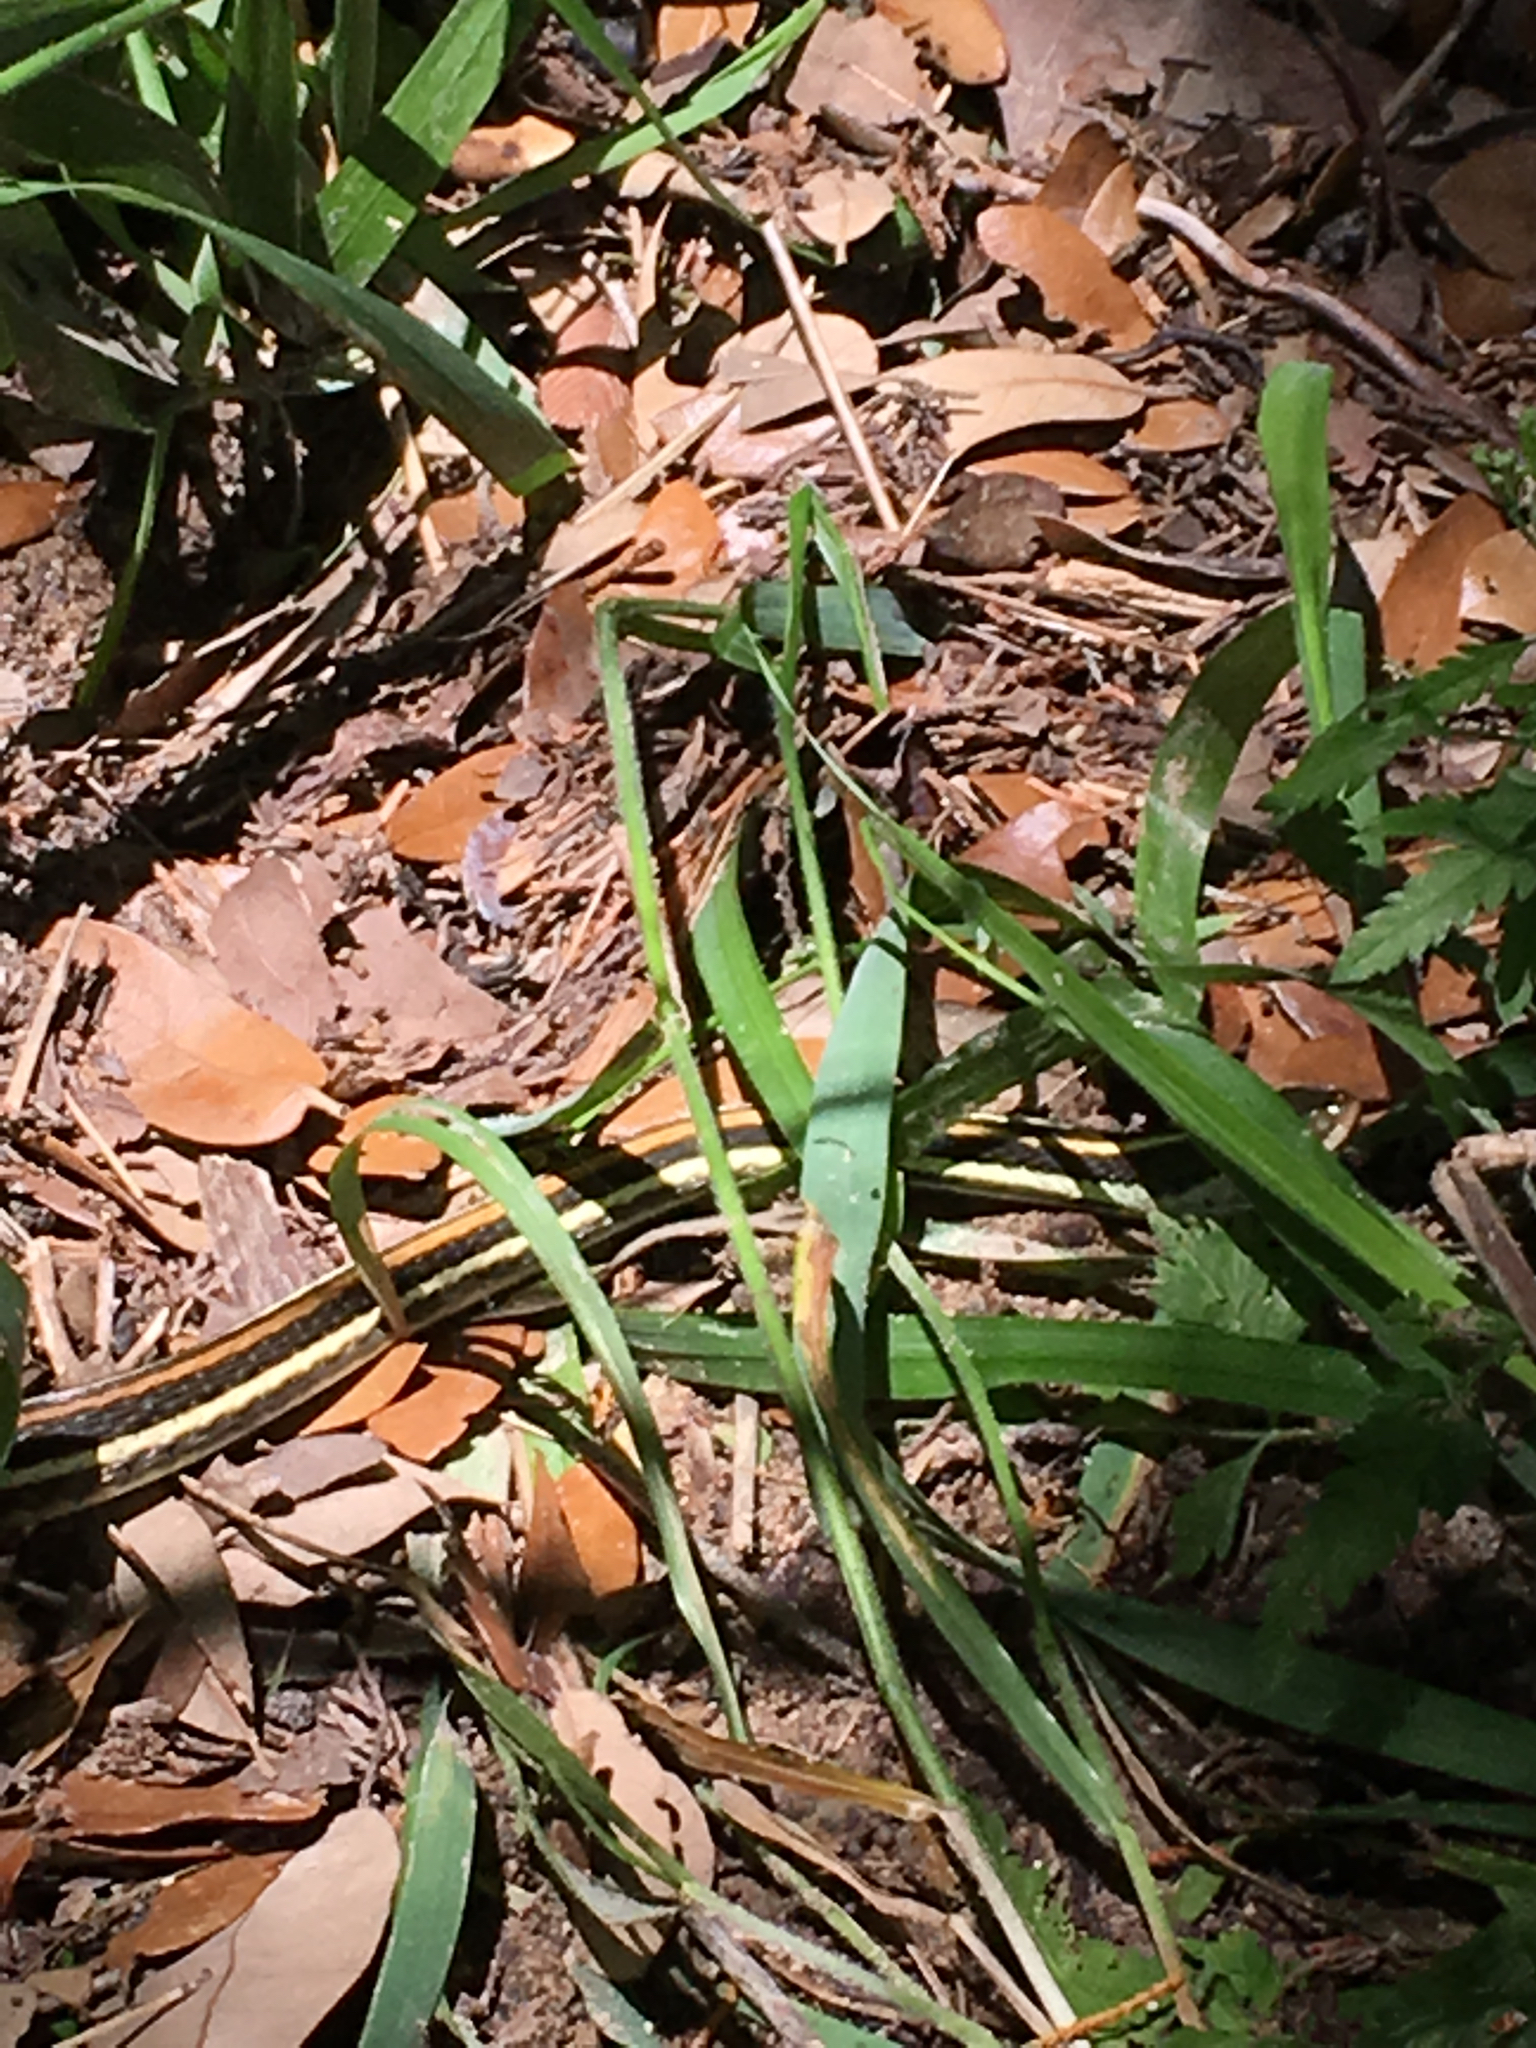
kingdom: Animalia
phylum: Chordata
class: Squamata
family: Colubridae
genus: Thamnophis
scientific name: Thamnophis proximus
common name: Western ribbon snake
